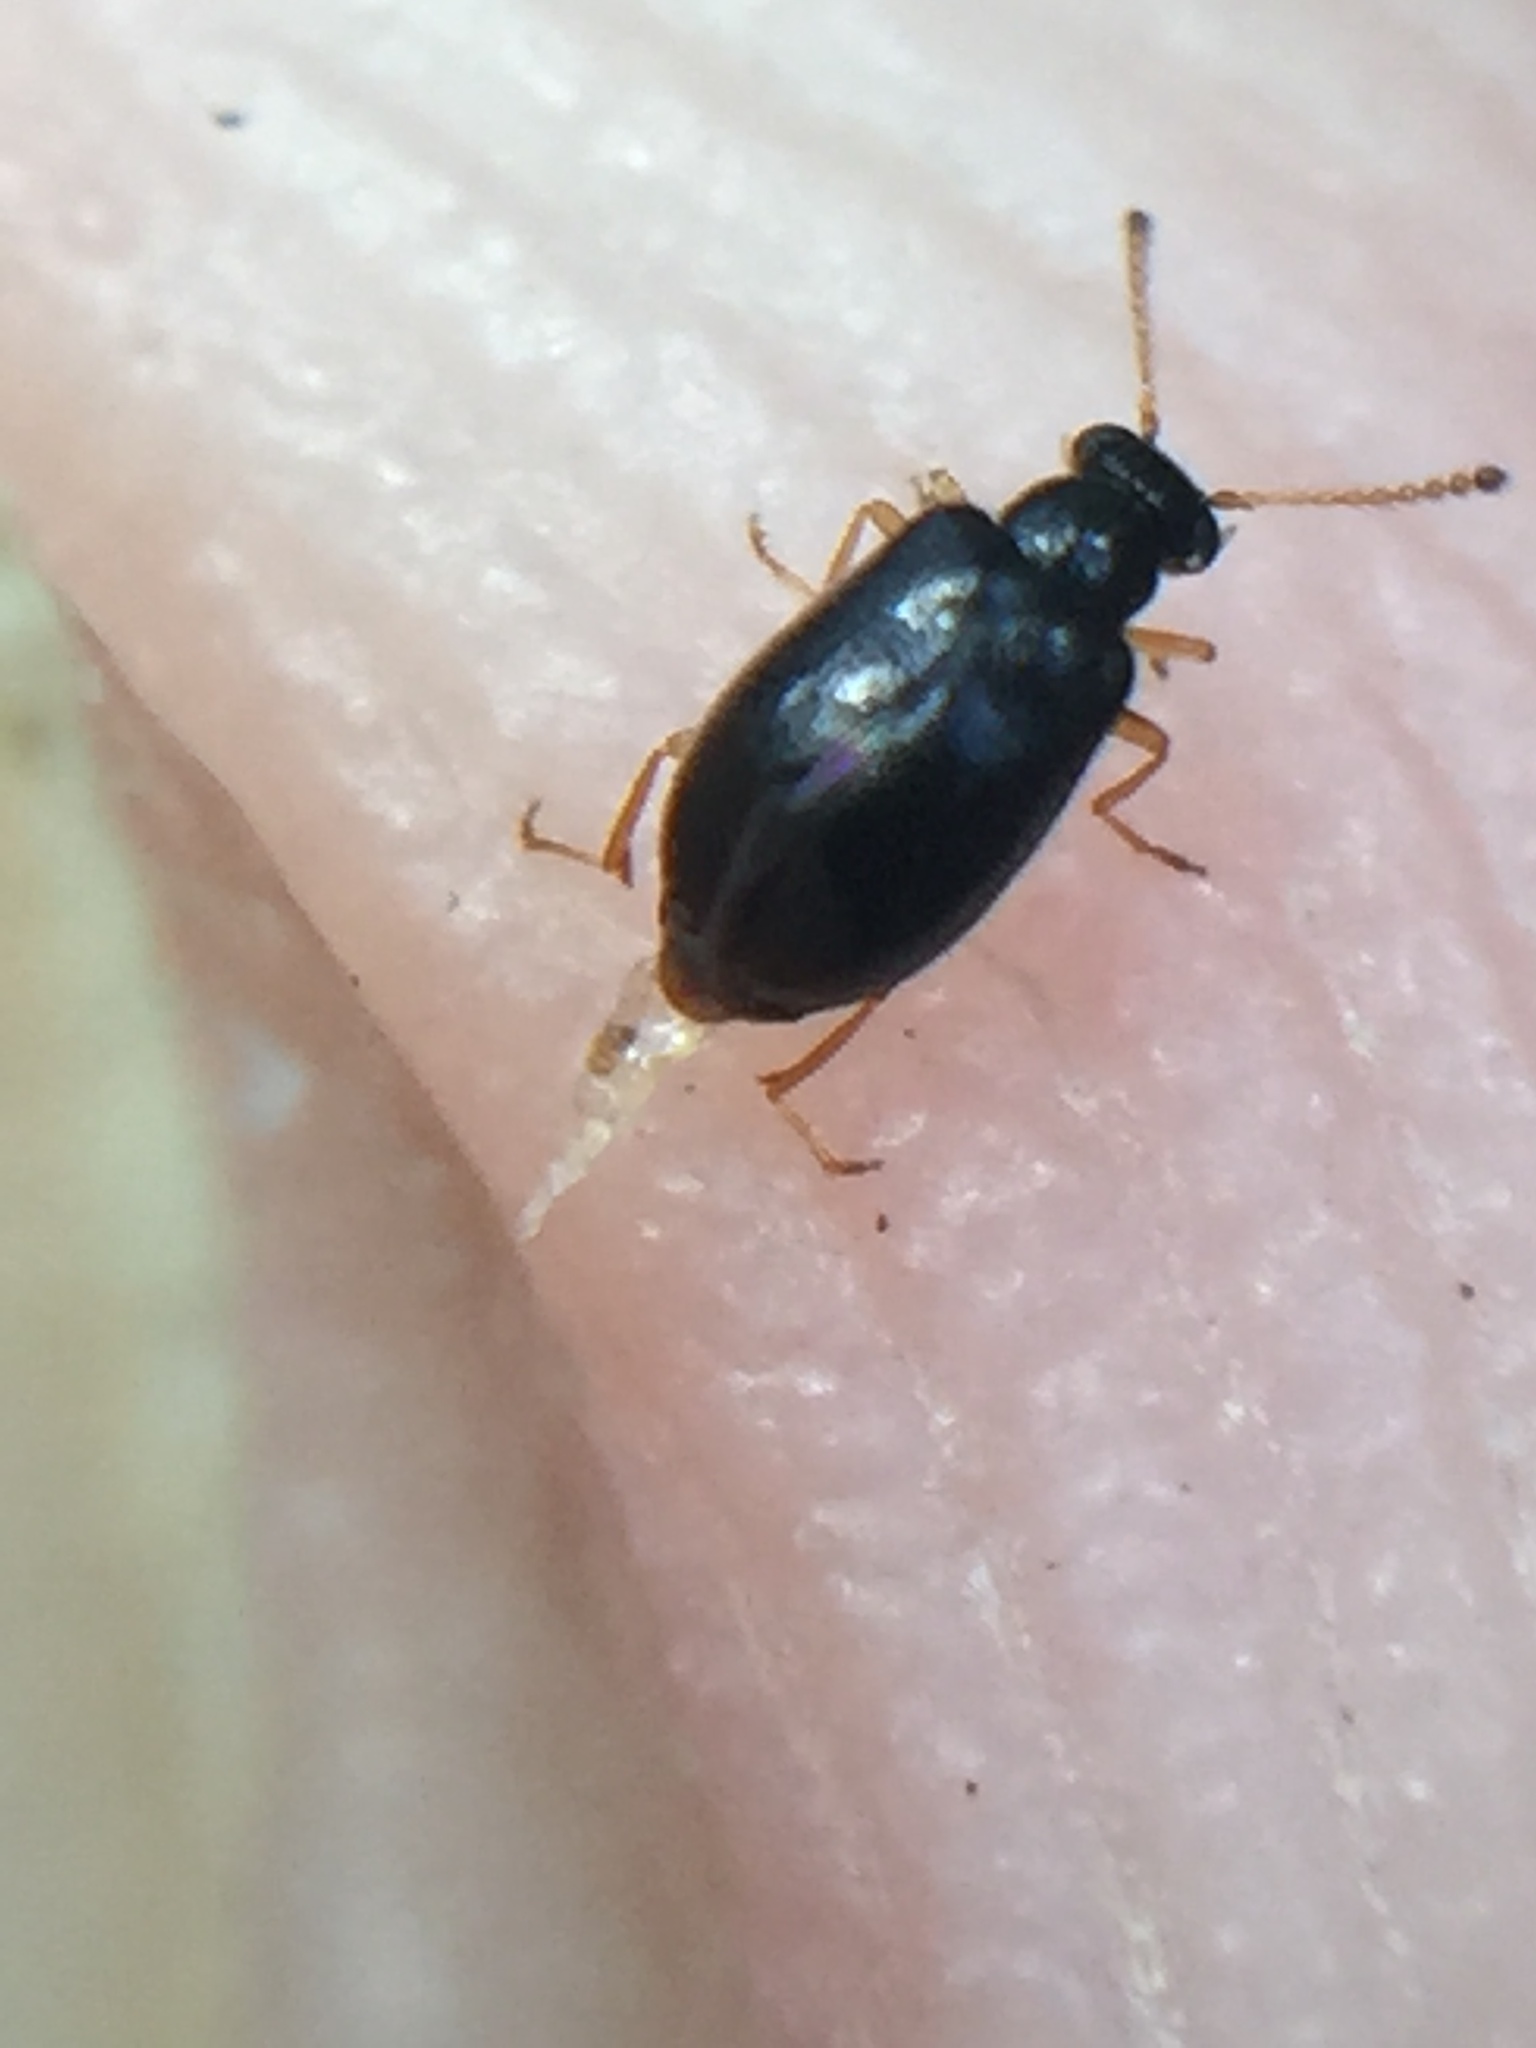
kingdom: Animalia
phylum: Arthropoda
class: Insecta
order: Coleoptera
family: Aderidae
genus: Zenascus
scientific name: Zenascus nitidus
